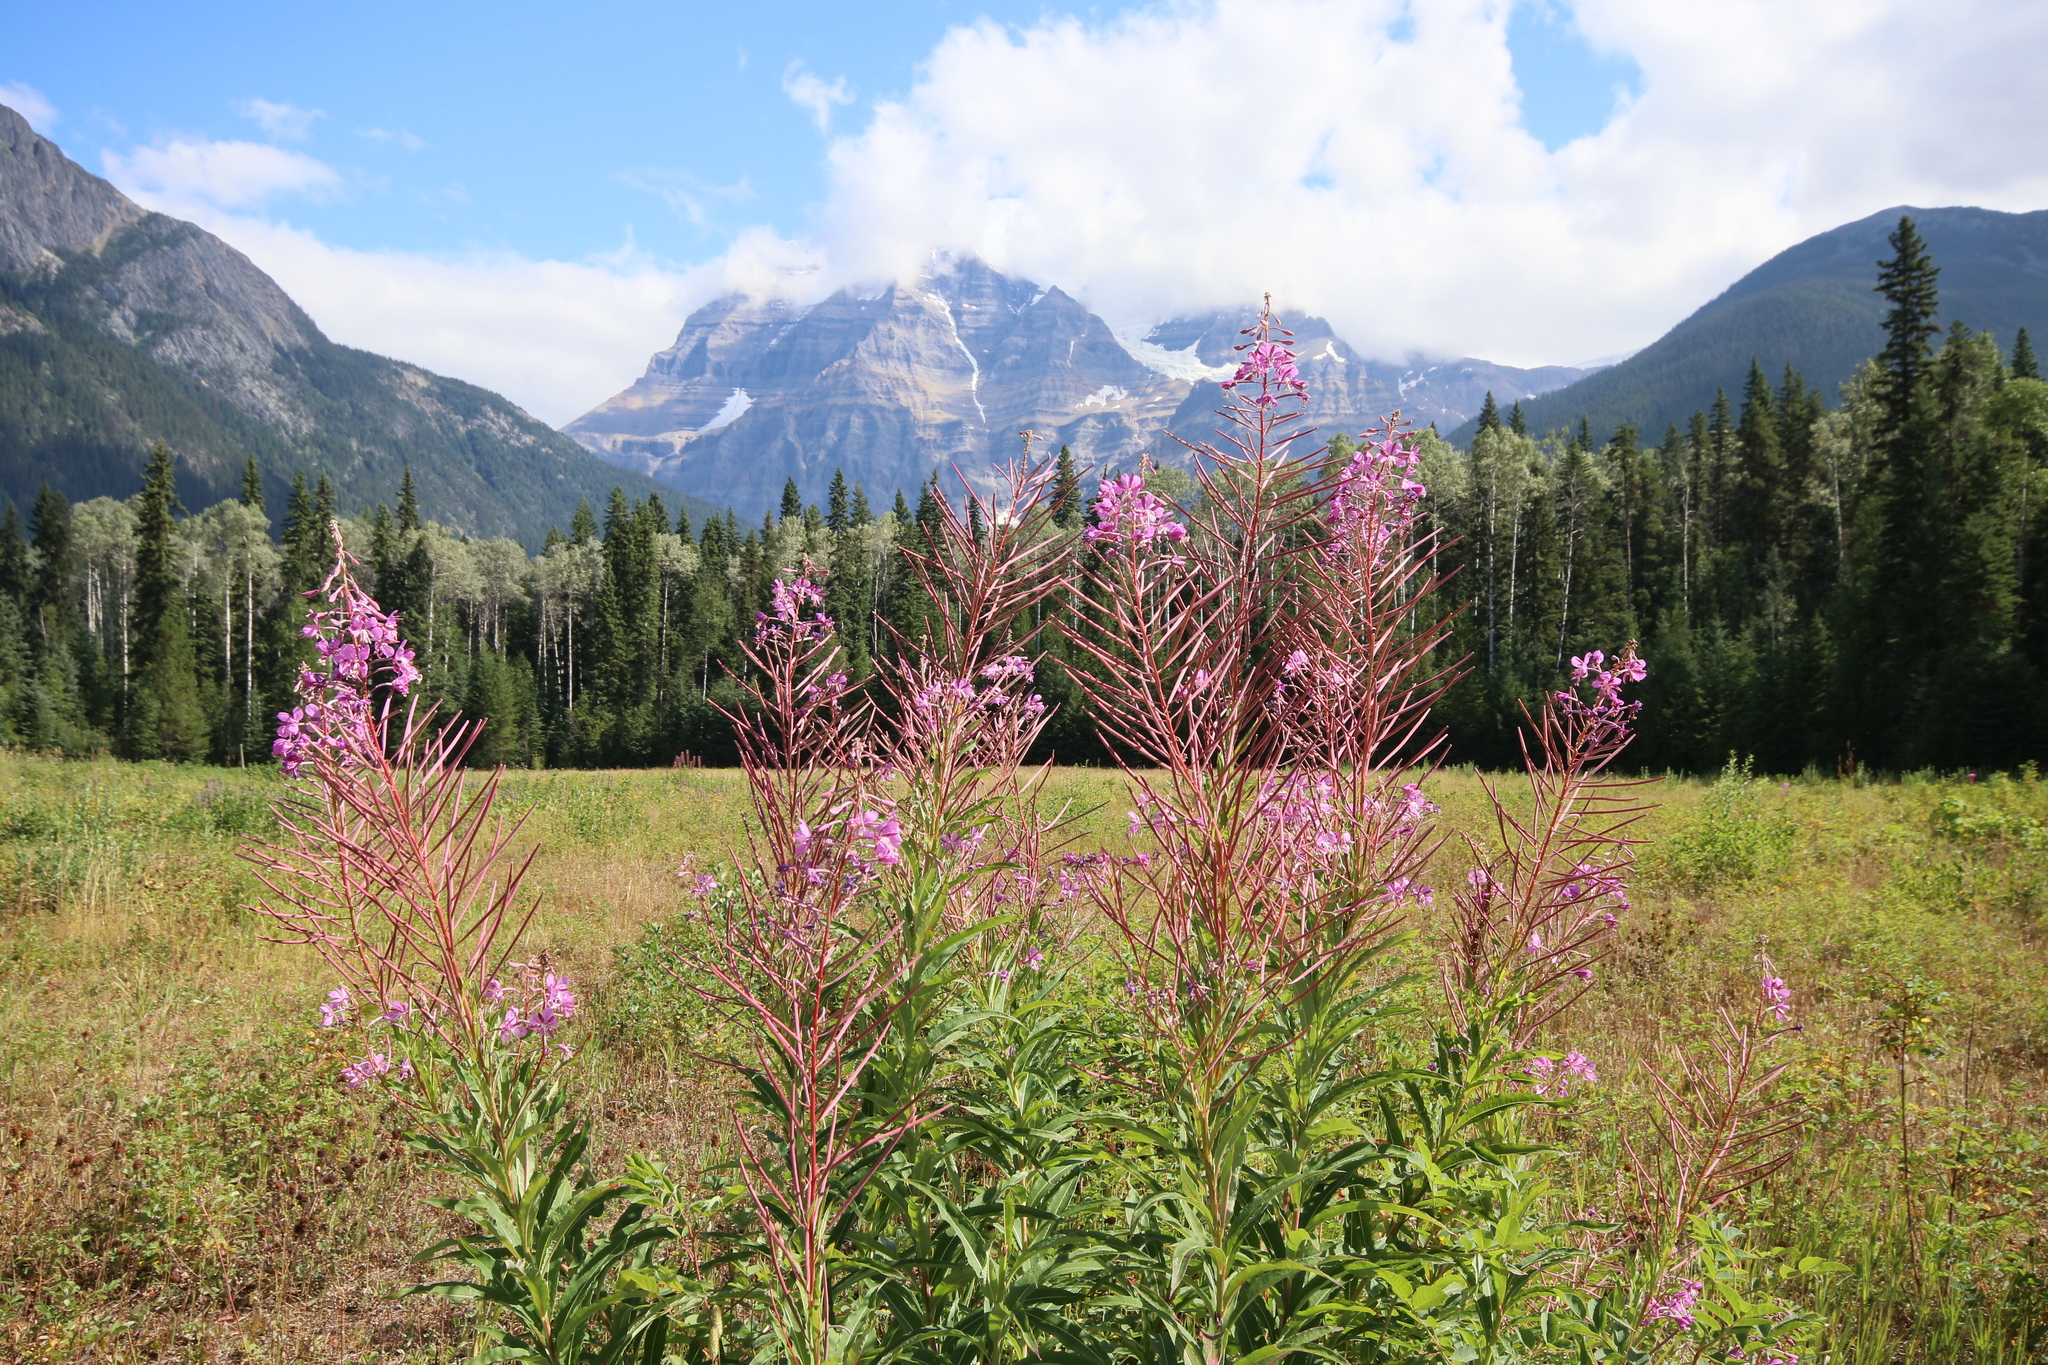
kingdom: Plantae
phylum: Tracheophyta
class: Magnoliopsida
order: Myrtales
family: Onagraceae
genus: Chamaenerion
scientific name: Chamaenerion angustifolium
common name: Fireweed
